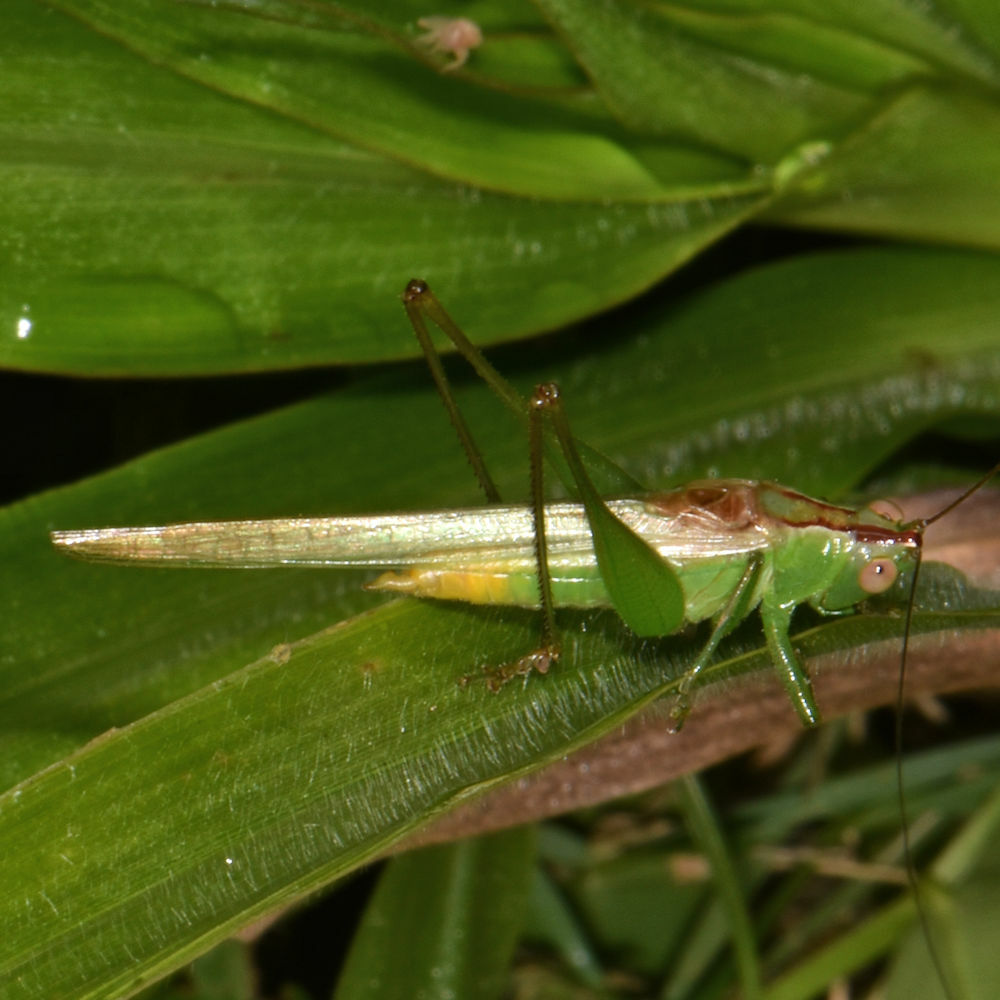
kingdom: Animalia
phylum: Arthropoda
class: Insecta
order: Orthoptera
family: Tettigoniidae
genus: Conocephalus
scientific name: Conocephalus cinereus
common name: Caribbean meadow katydid
